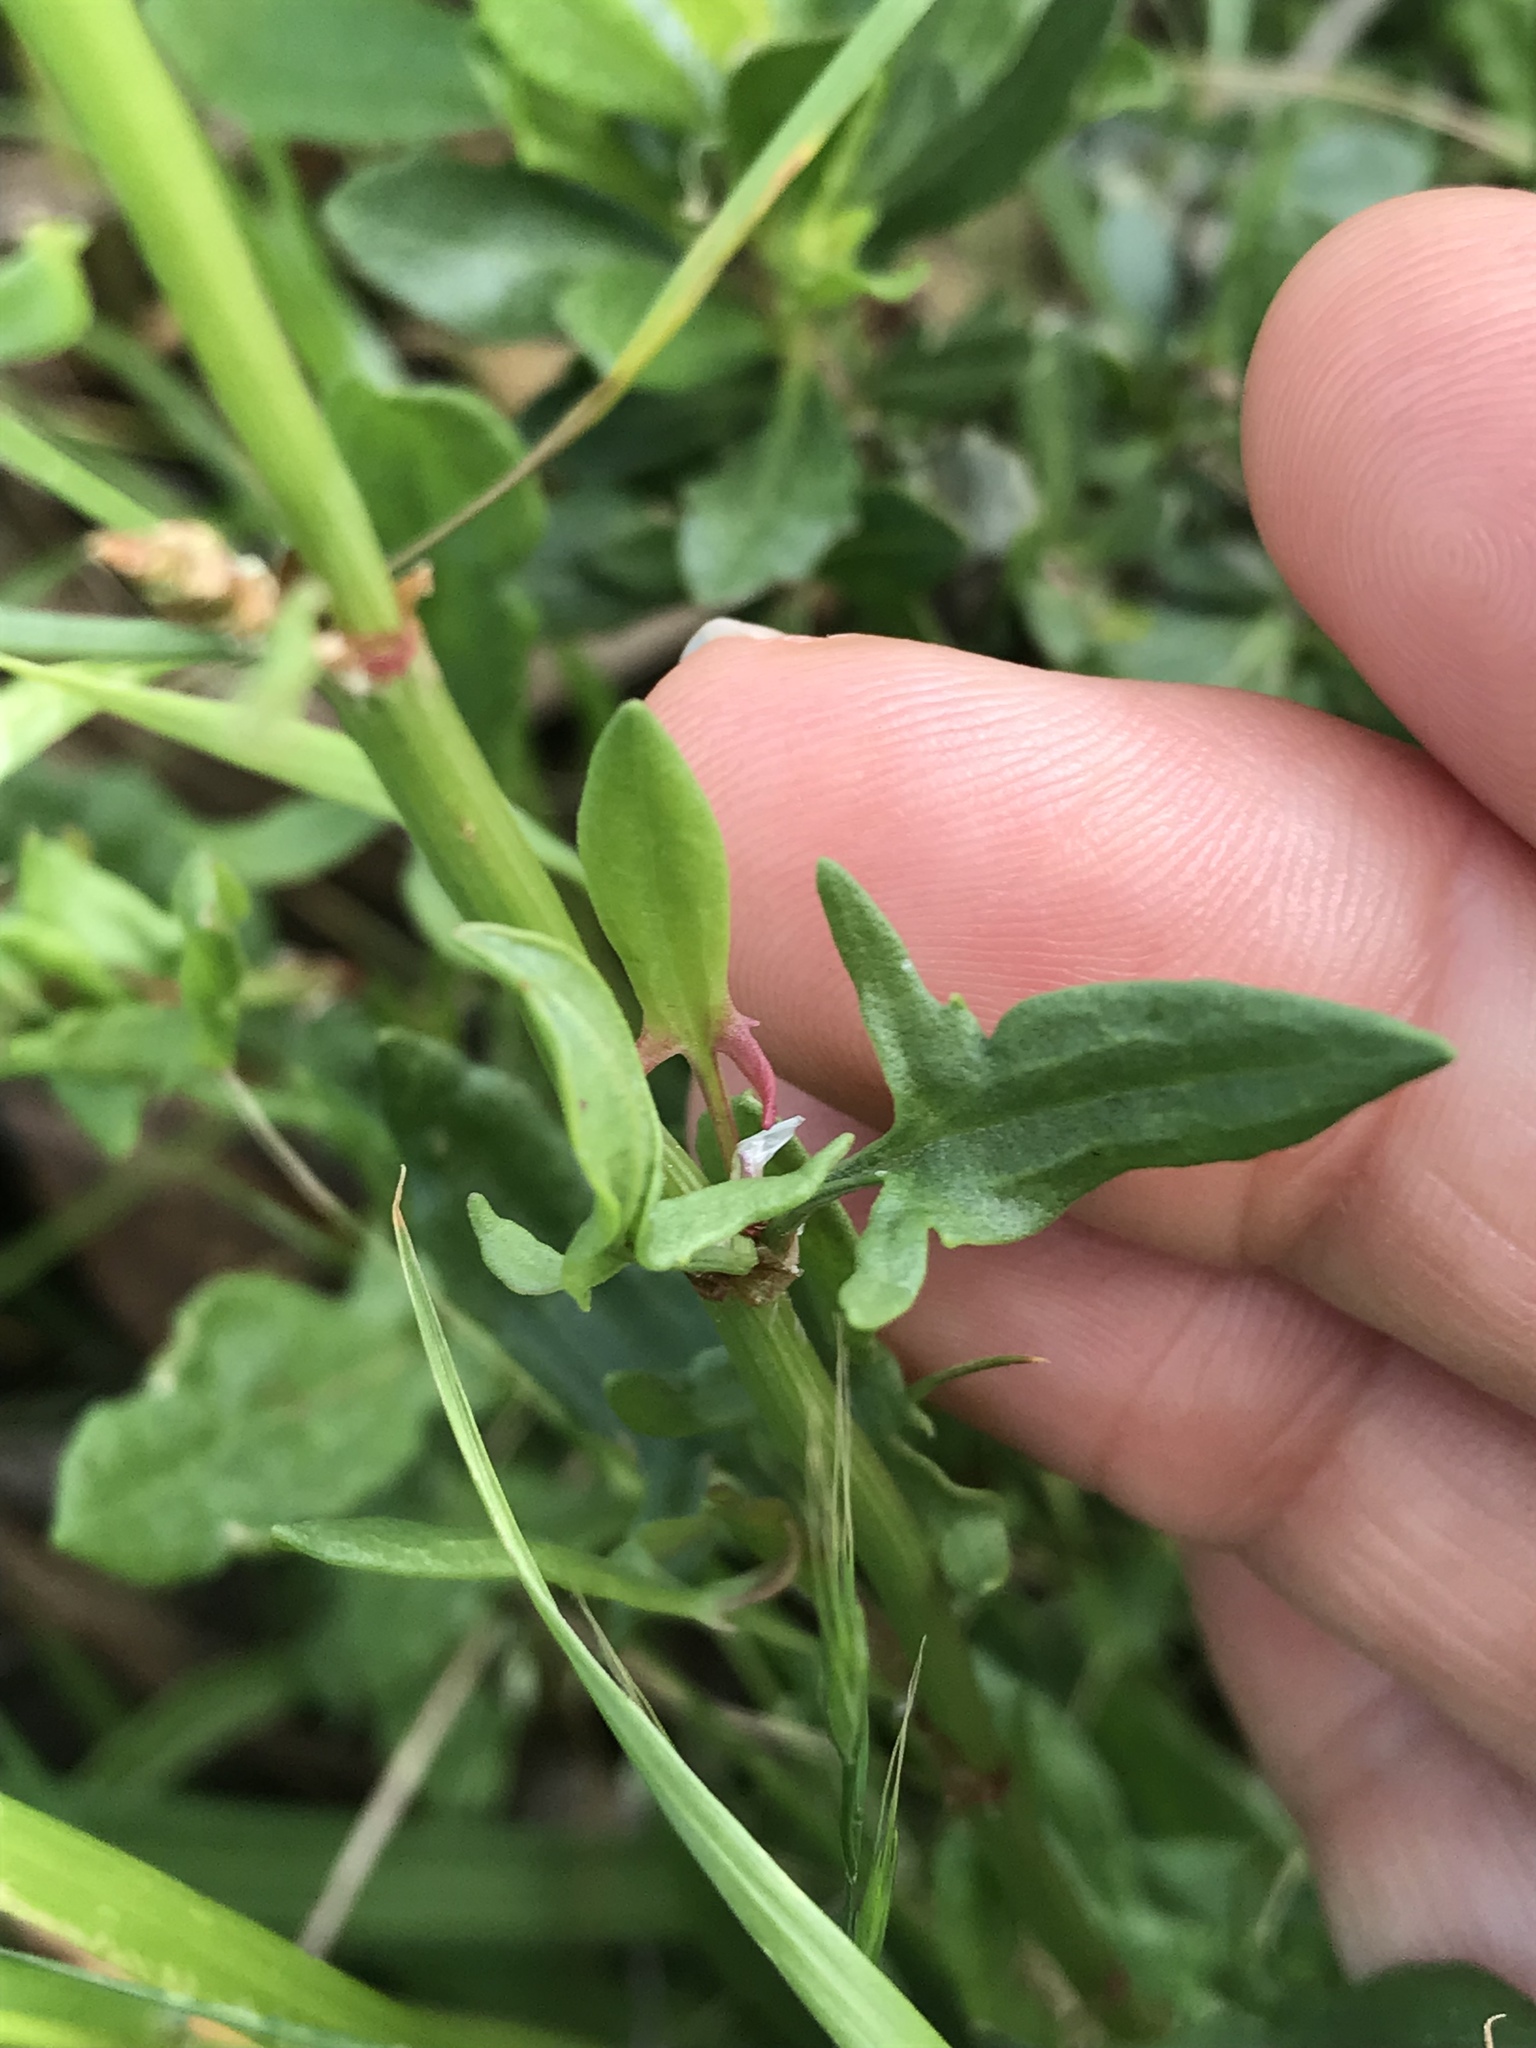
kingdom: Plantae
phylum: Tracheophyta
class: Magnoliopsida
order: Caryophyllales
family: Polygonaceae
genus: Rumex
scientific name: Rumex acetosella
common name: Common sheep sorrel
